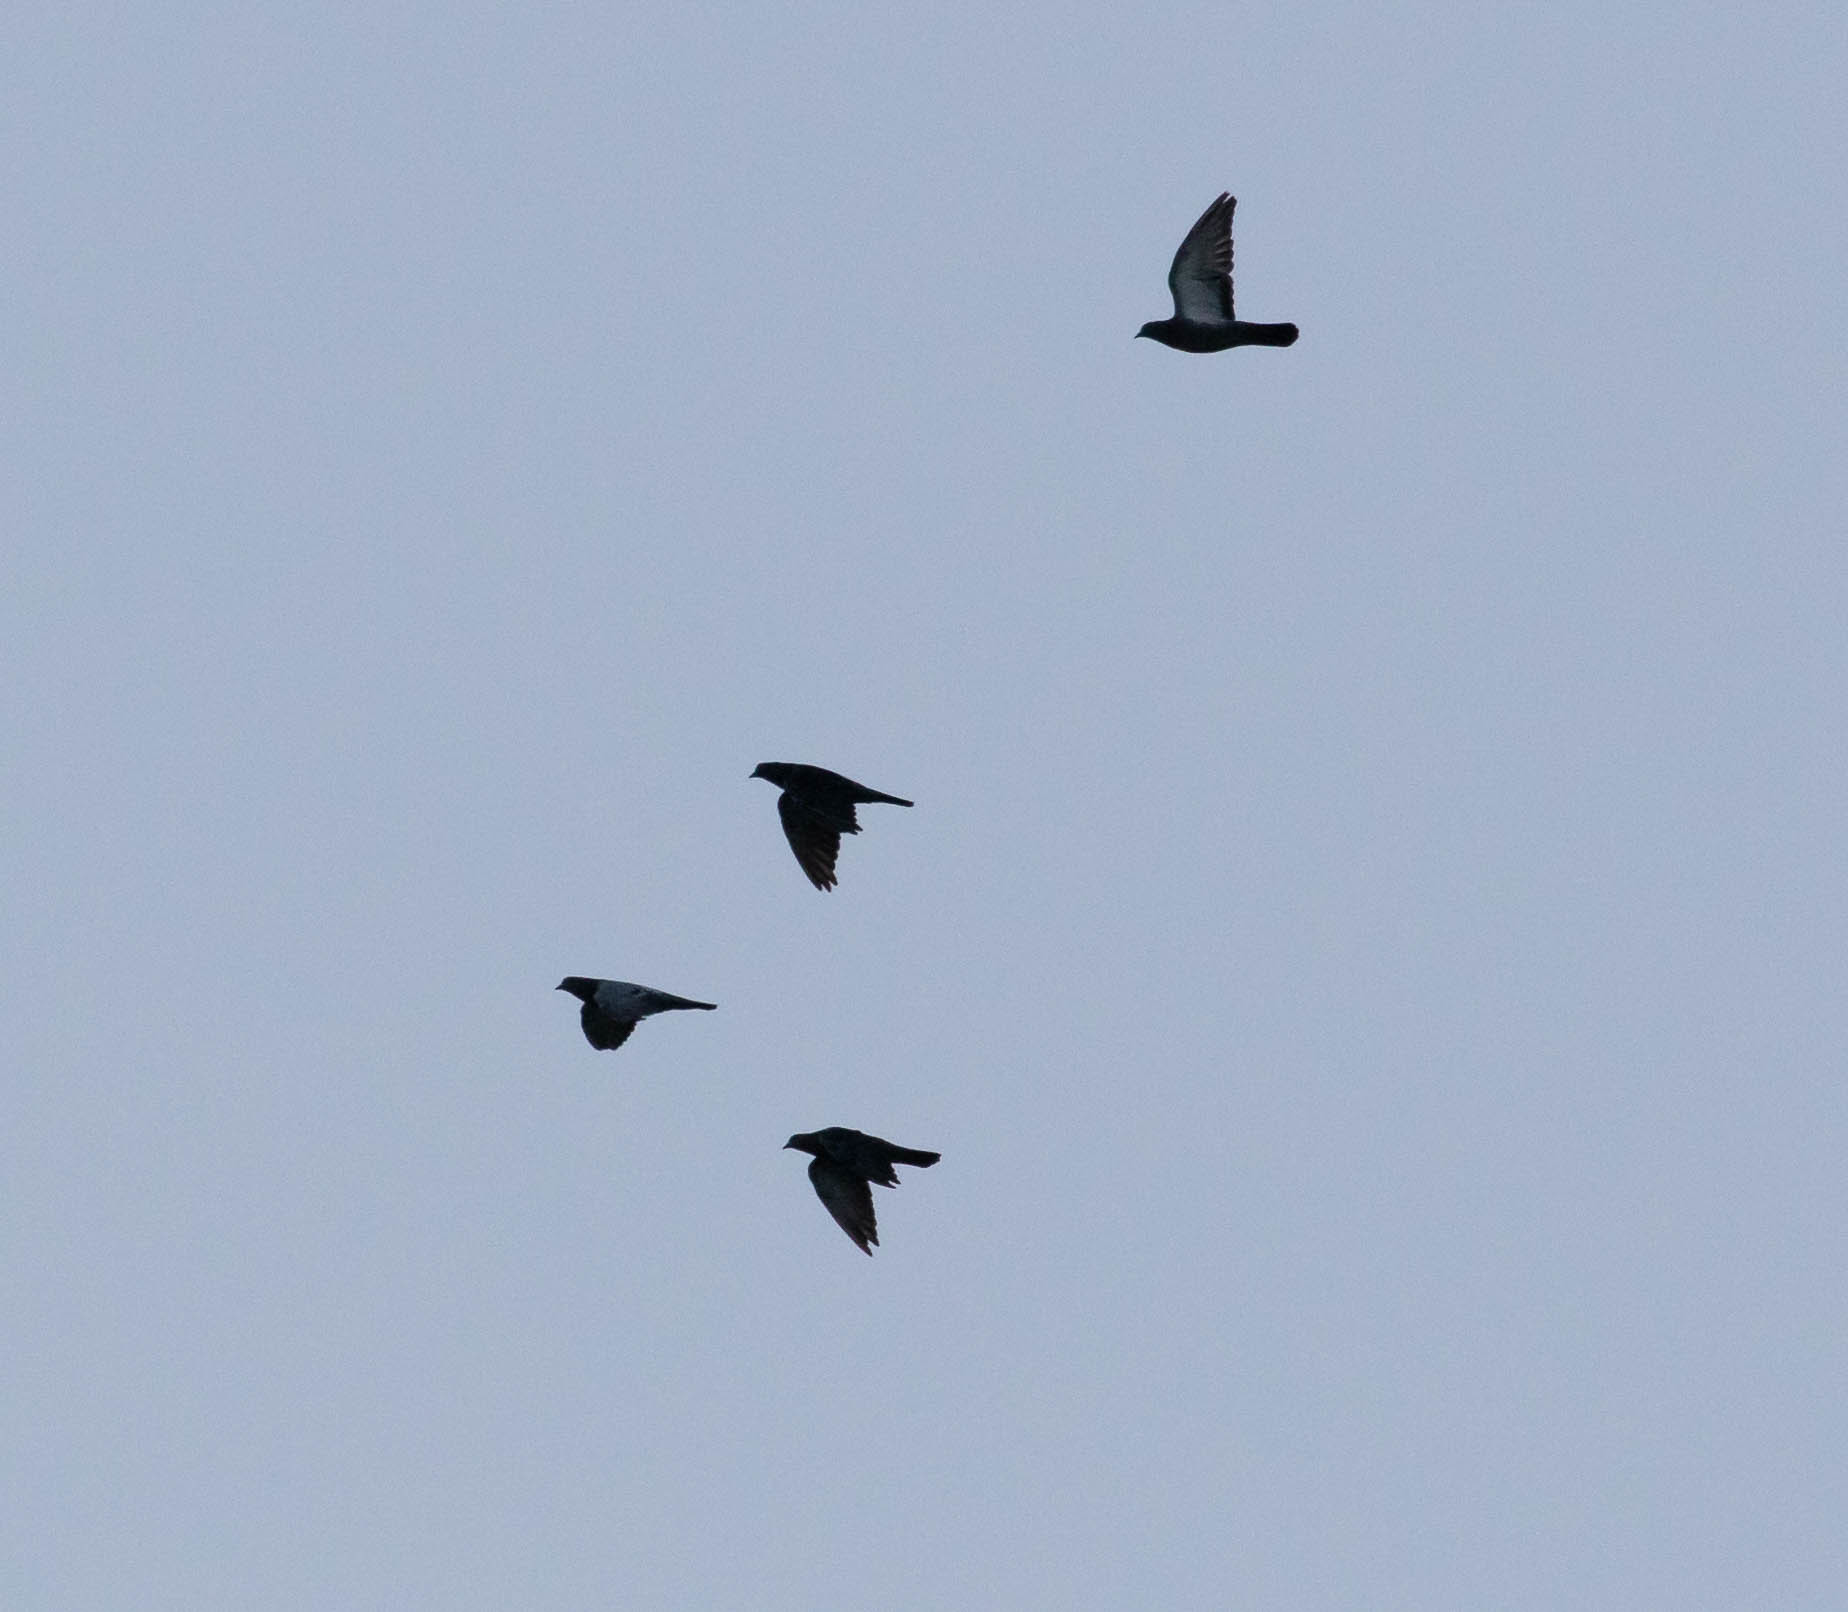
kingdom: Animalia
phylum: Chordata
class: Aves
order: Columbiformes
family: Columbidae
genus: Columba
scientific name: Columba livia
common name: Rock pigeon
